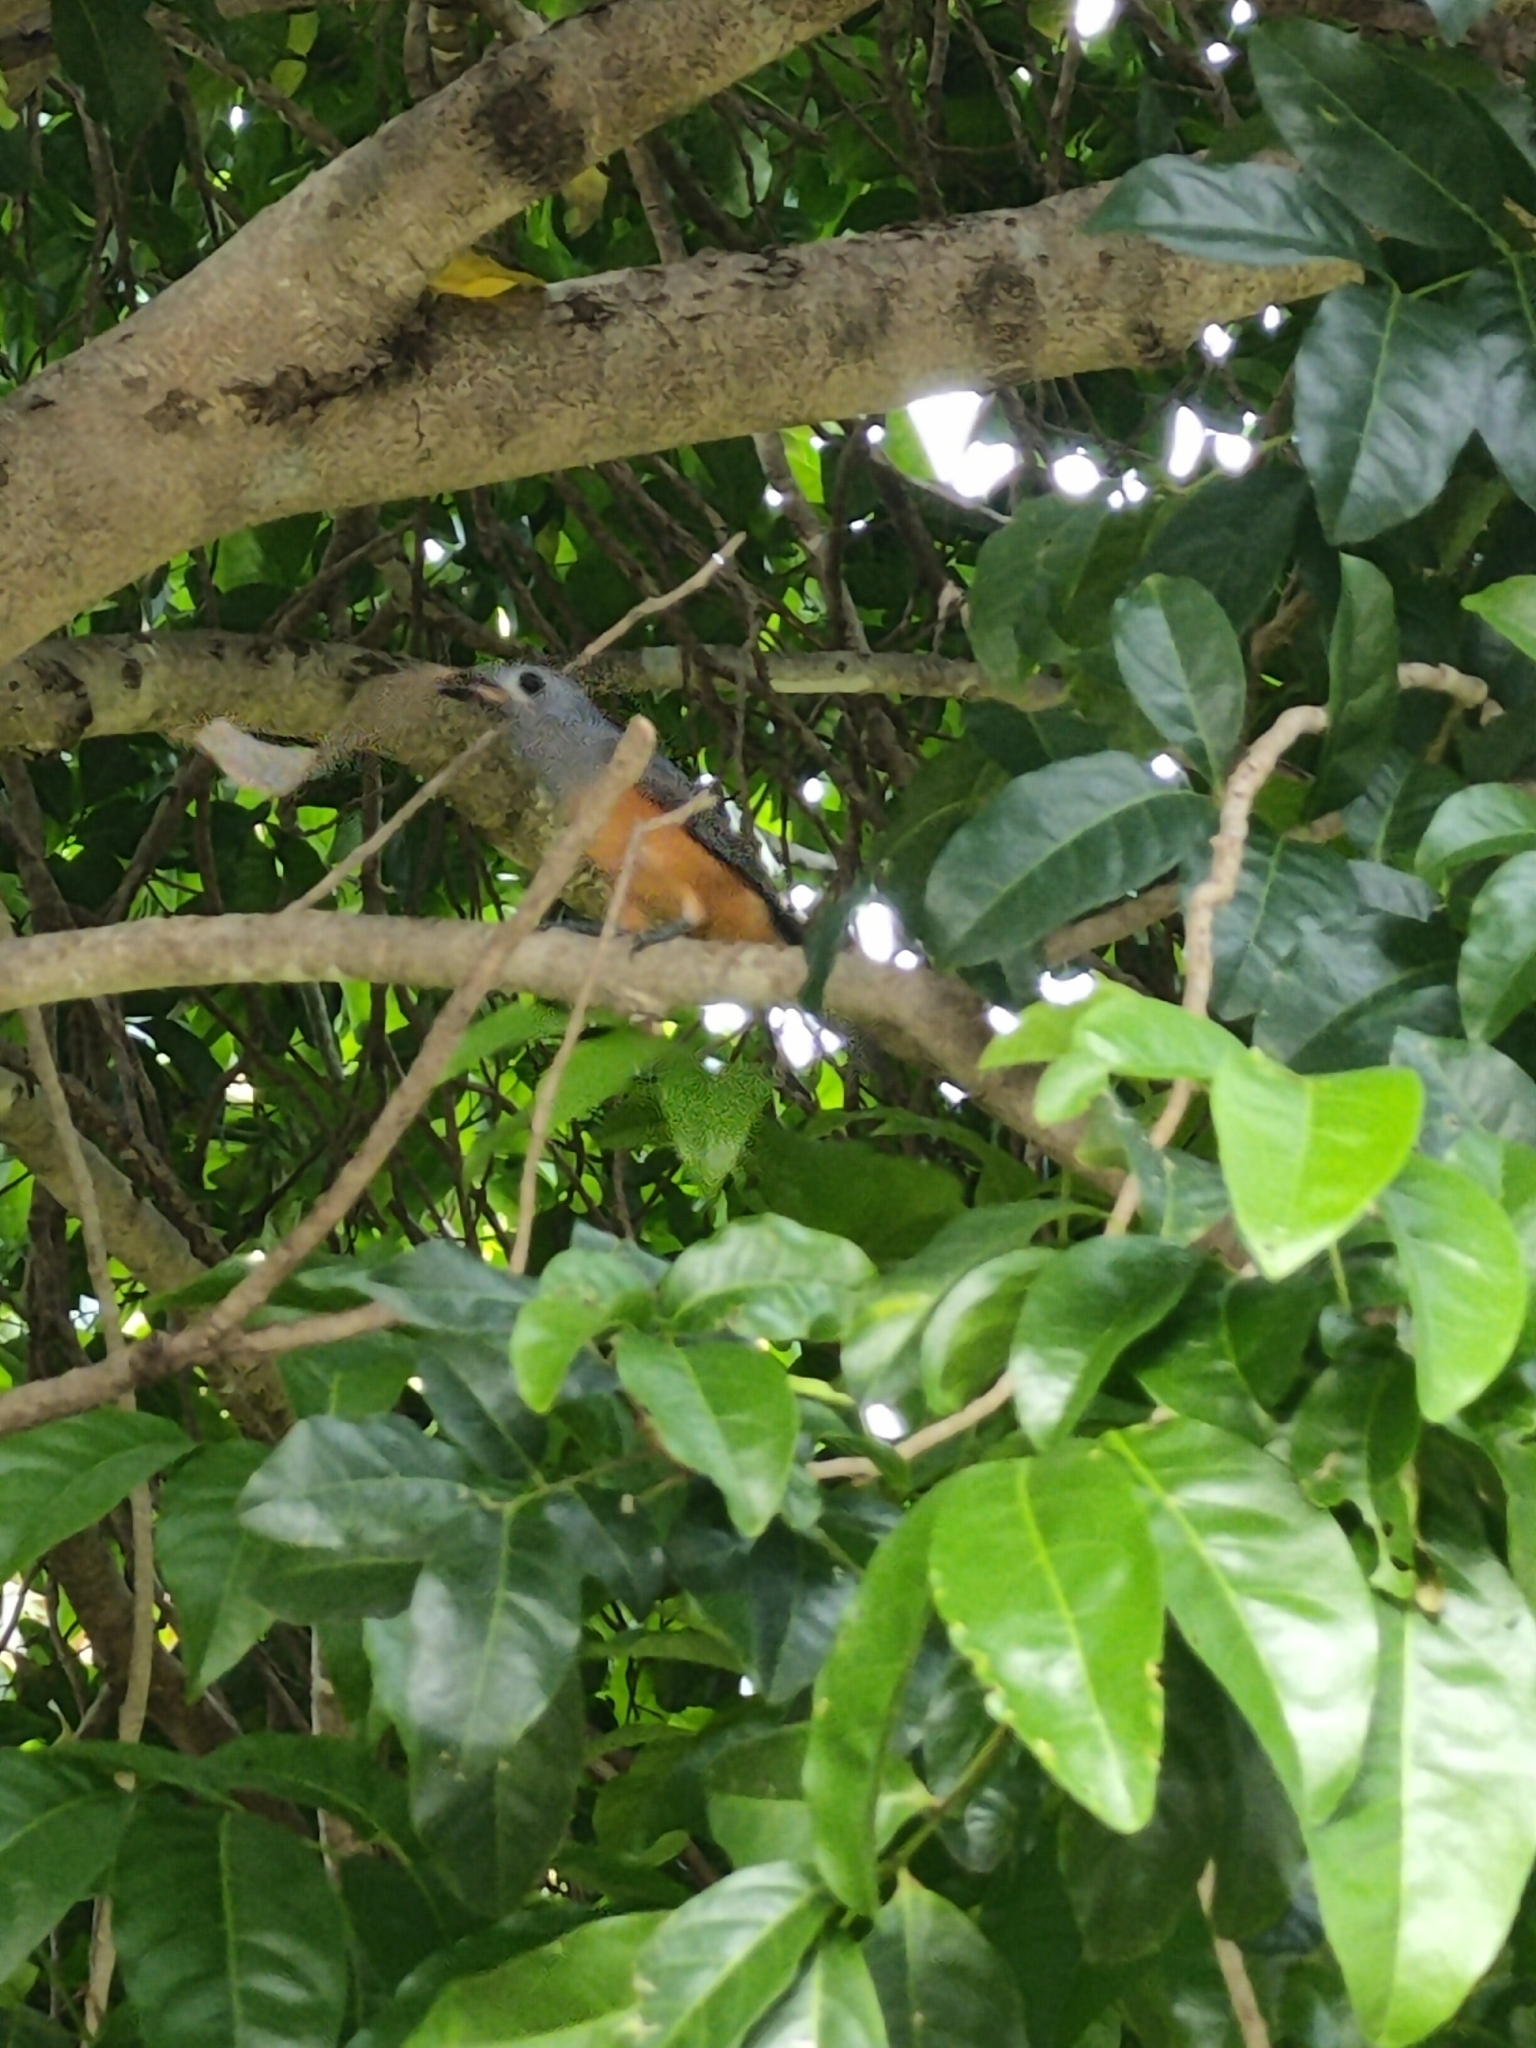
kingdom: Animalia
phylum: Chordata
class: Aves
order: Passeriformes
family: Monarchidae
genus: Monarcha
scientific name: Monarcha melanopsis
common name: Black-faced monarch
